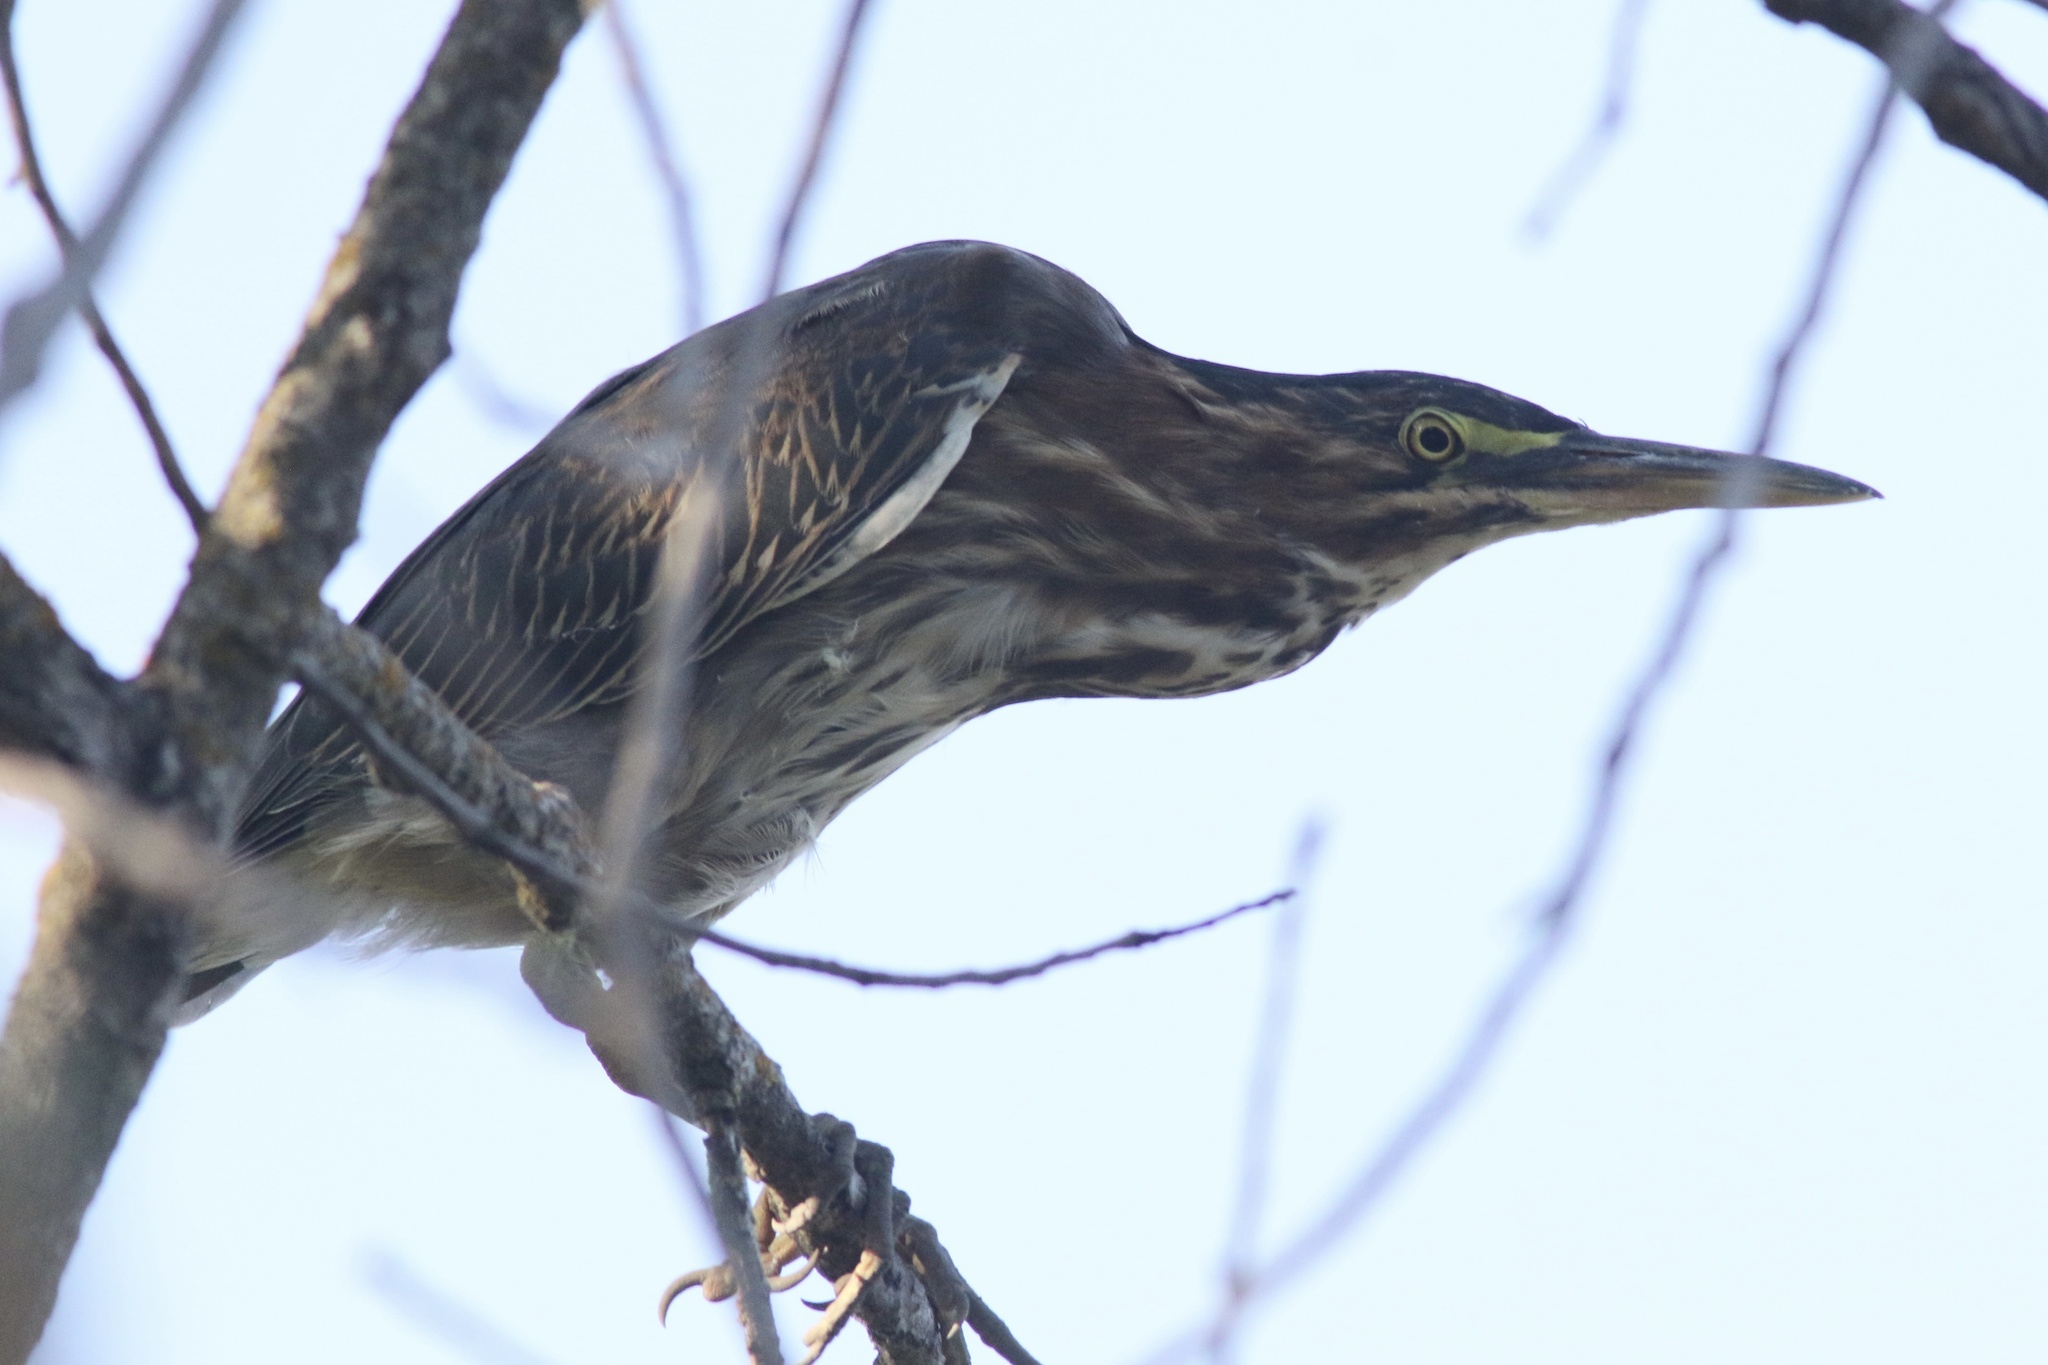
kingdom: Animalia
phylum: Chordata
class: Aves
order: Pelecaniformes
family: Ardeidae
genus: Butorides
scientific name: Butorides virescens
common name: Green heron
